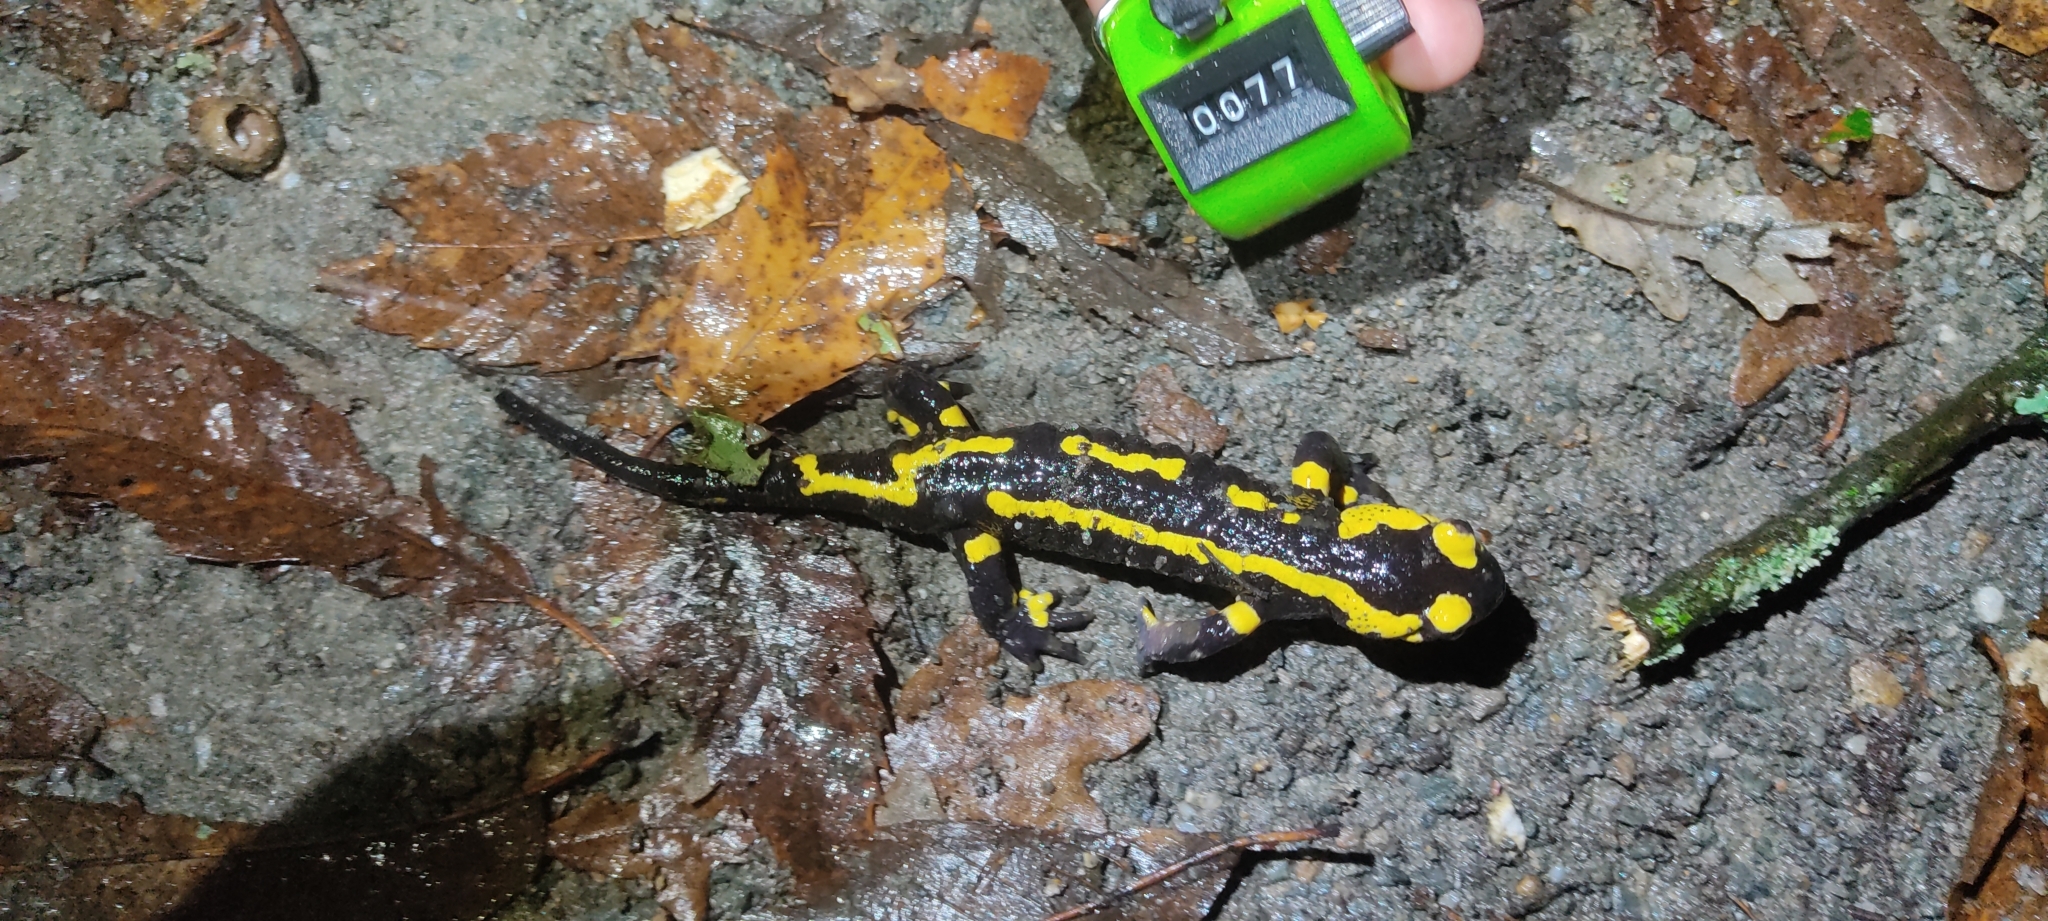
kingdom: Animalia
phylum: Chordata
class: Amphibia
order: Caudata
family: Salamandridae
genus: Salamandra
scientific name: Salamandra salamandra
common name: Fire salamander
